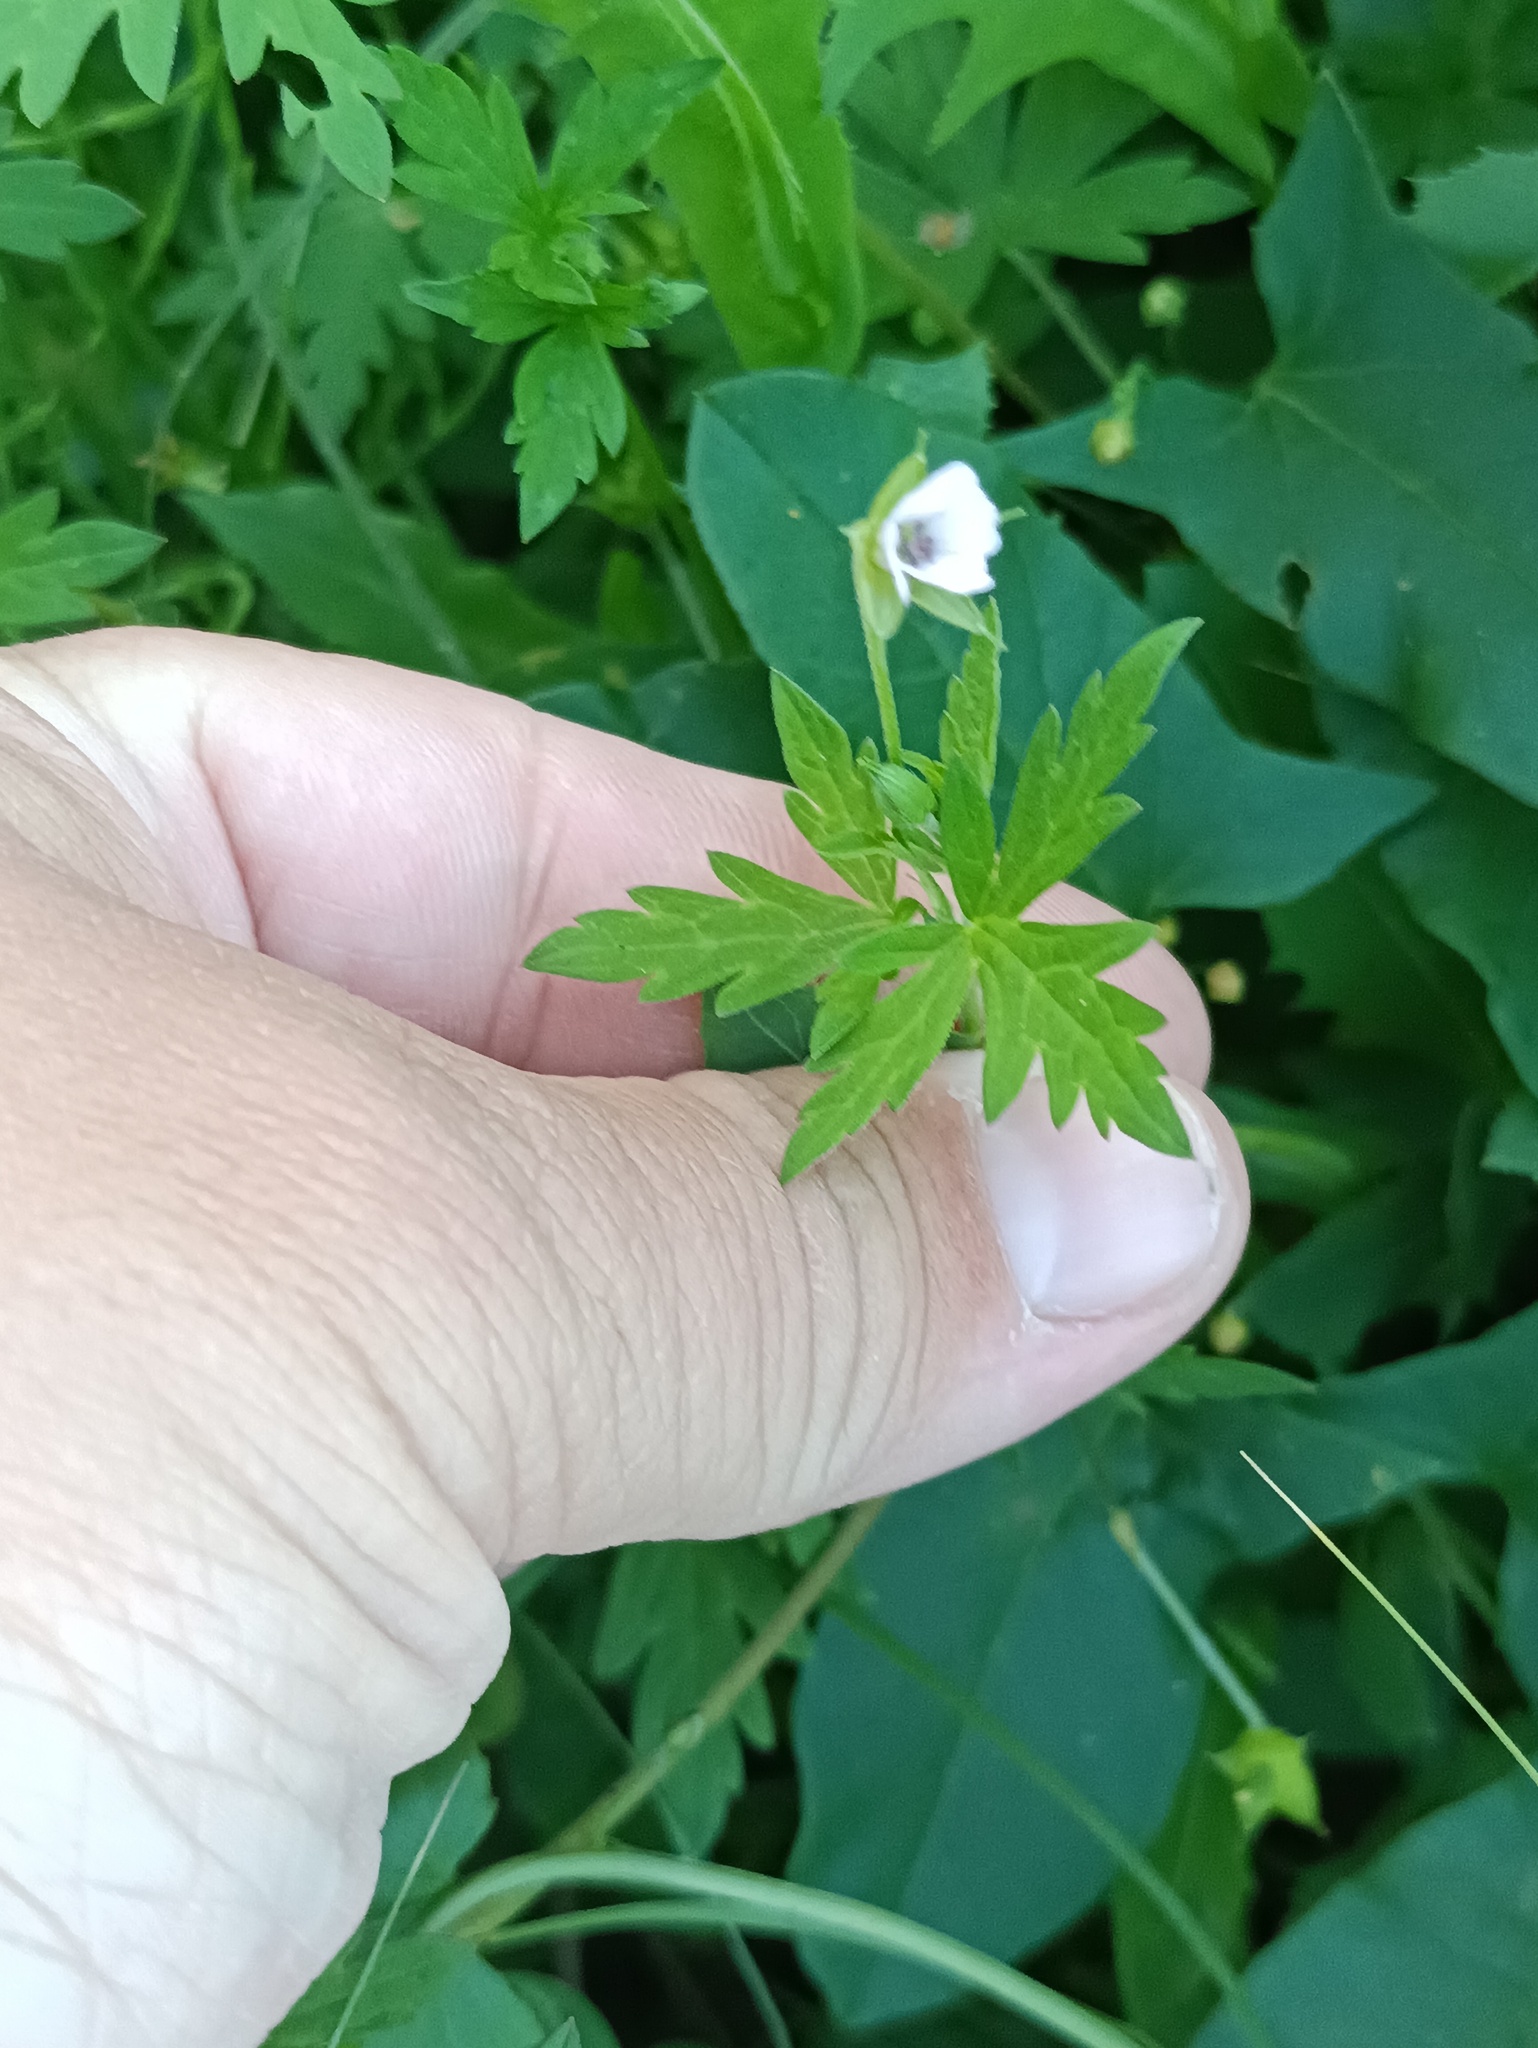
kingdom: Plantae
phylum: Tracheophyta
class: Magnoliopsida
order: Geraniales
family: Geraniaceae
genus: Geranium
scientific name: Geranium sibiricum
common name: Siberian crane's-bill
